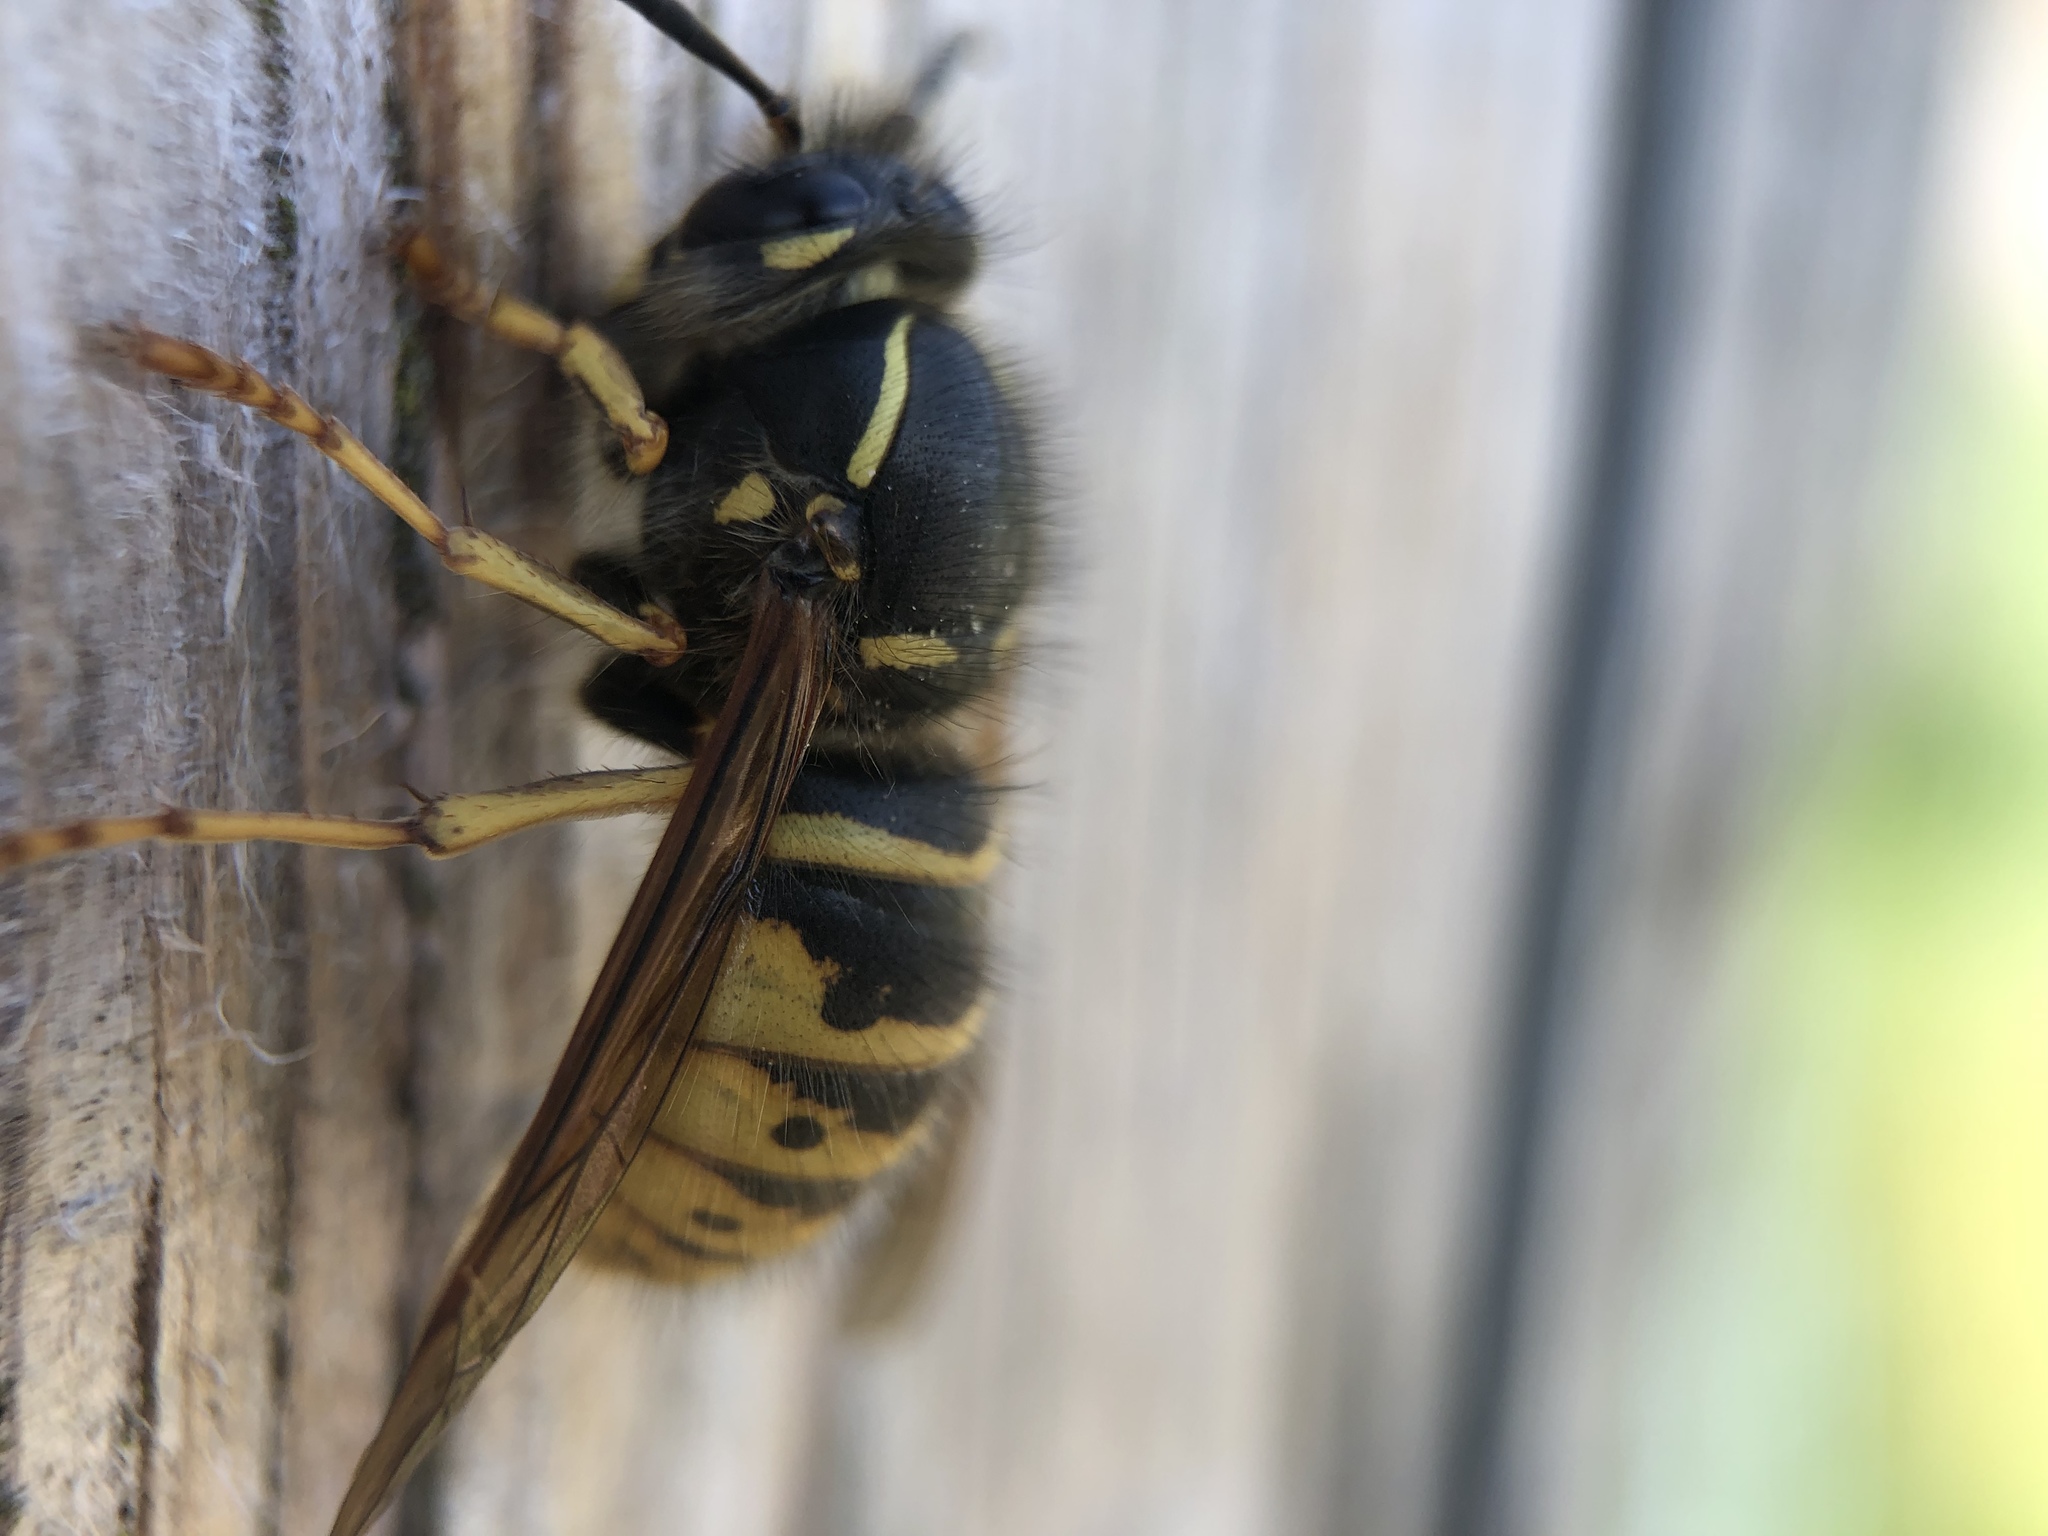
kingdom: Animalia
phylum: Arthropoda
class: Insecta
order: Hymenoptera
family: Vespidae
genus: Dolichovespula
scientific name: Dolichovespula saxonica
